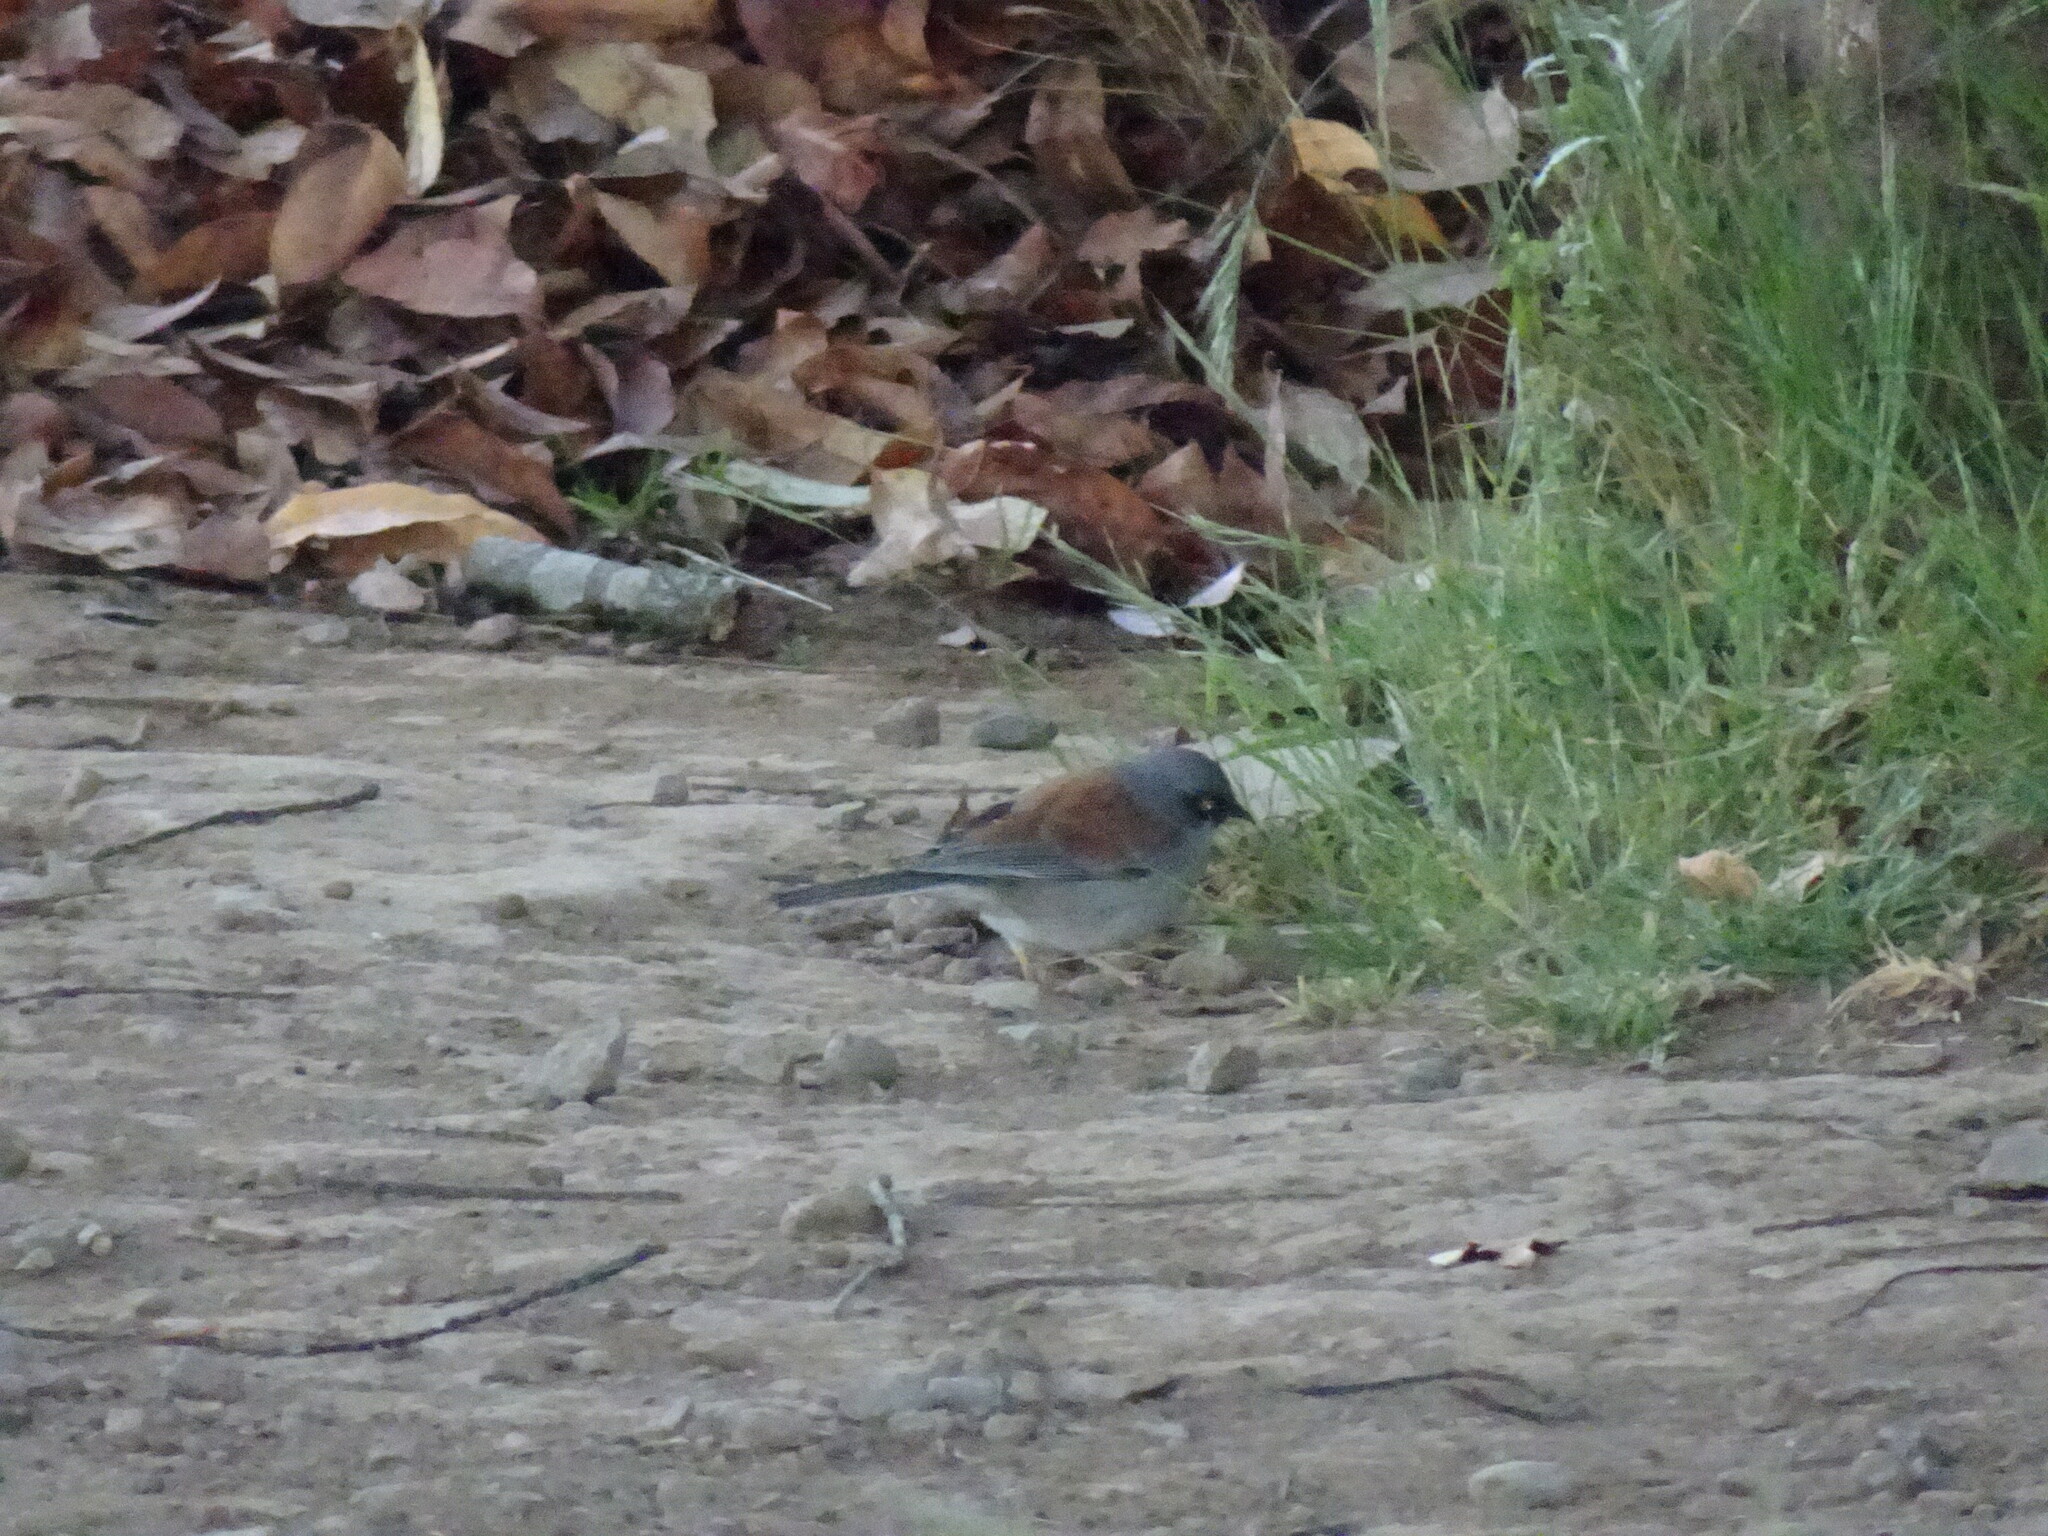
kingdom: Animalia
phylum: Chordata
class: Aves
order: Passeriformes
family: Passerellidae
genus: Junco
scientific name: Junco phaeonotus
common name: Yellow-eyed junco
